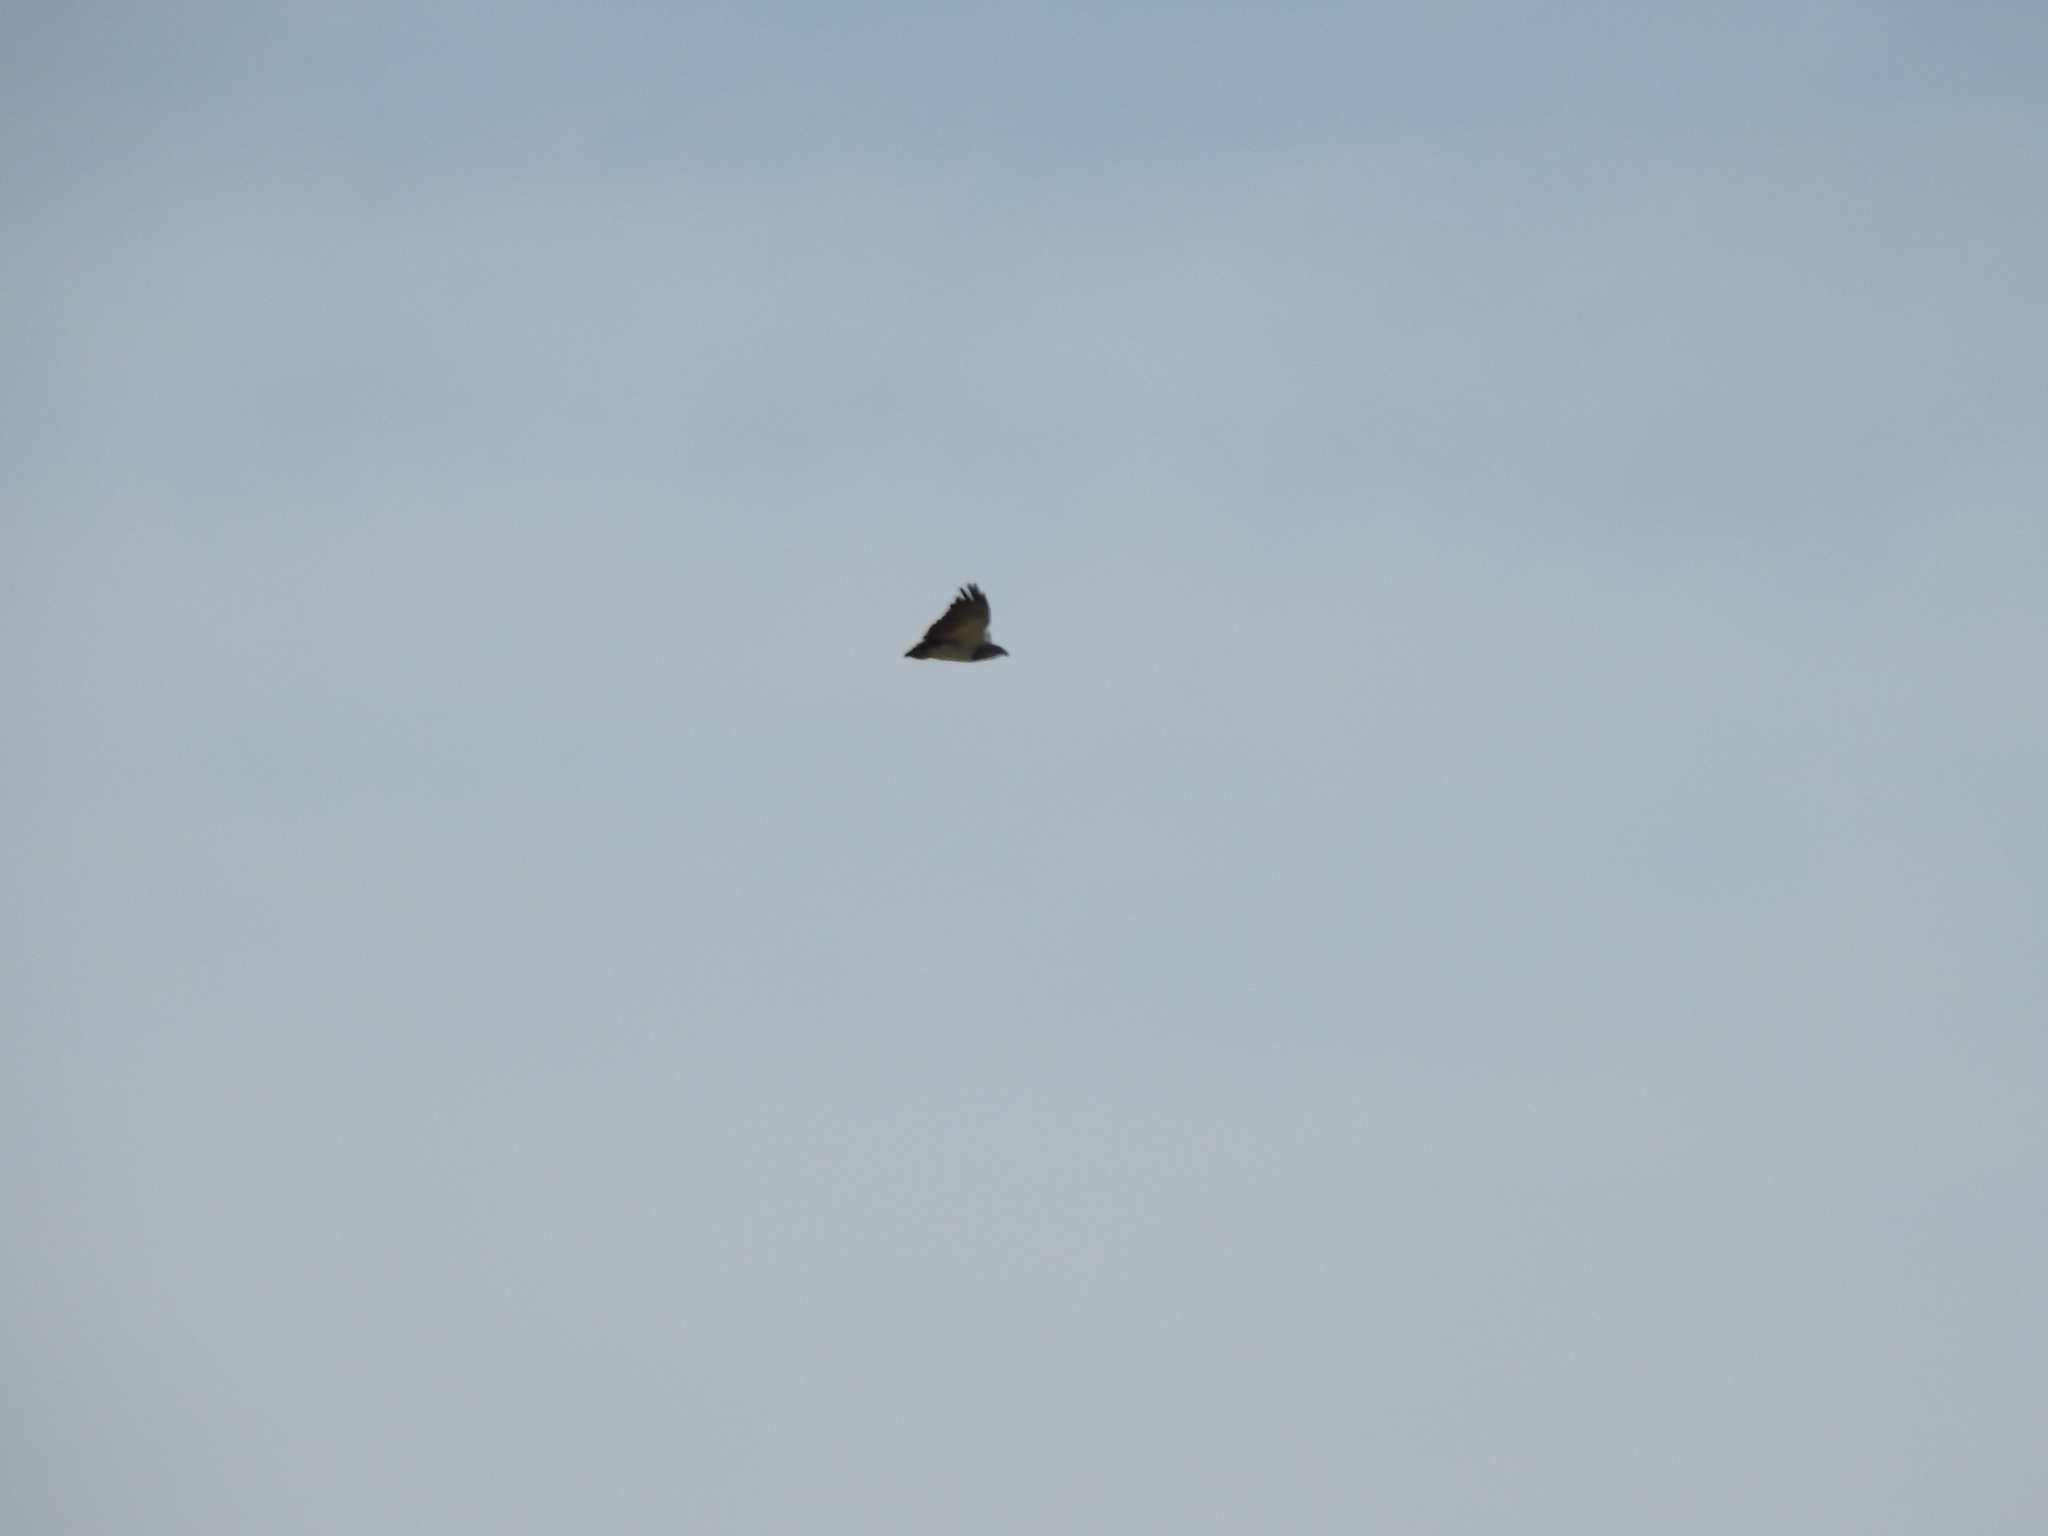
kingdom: Animalia
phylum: Chordata
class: Aves
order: Accipitriformes
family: Accipitridae
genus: Geranoaetus
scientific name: Geranoaetus melanoleucus
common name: Black-chested buzzard-eagle
